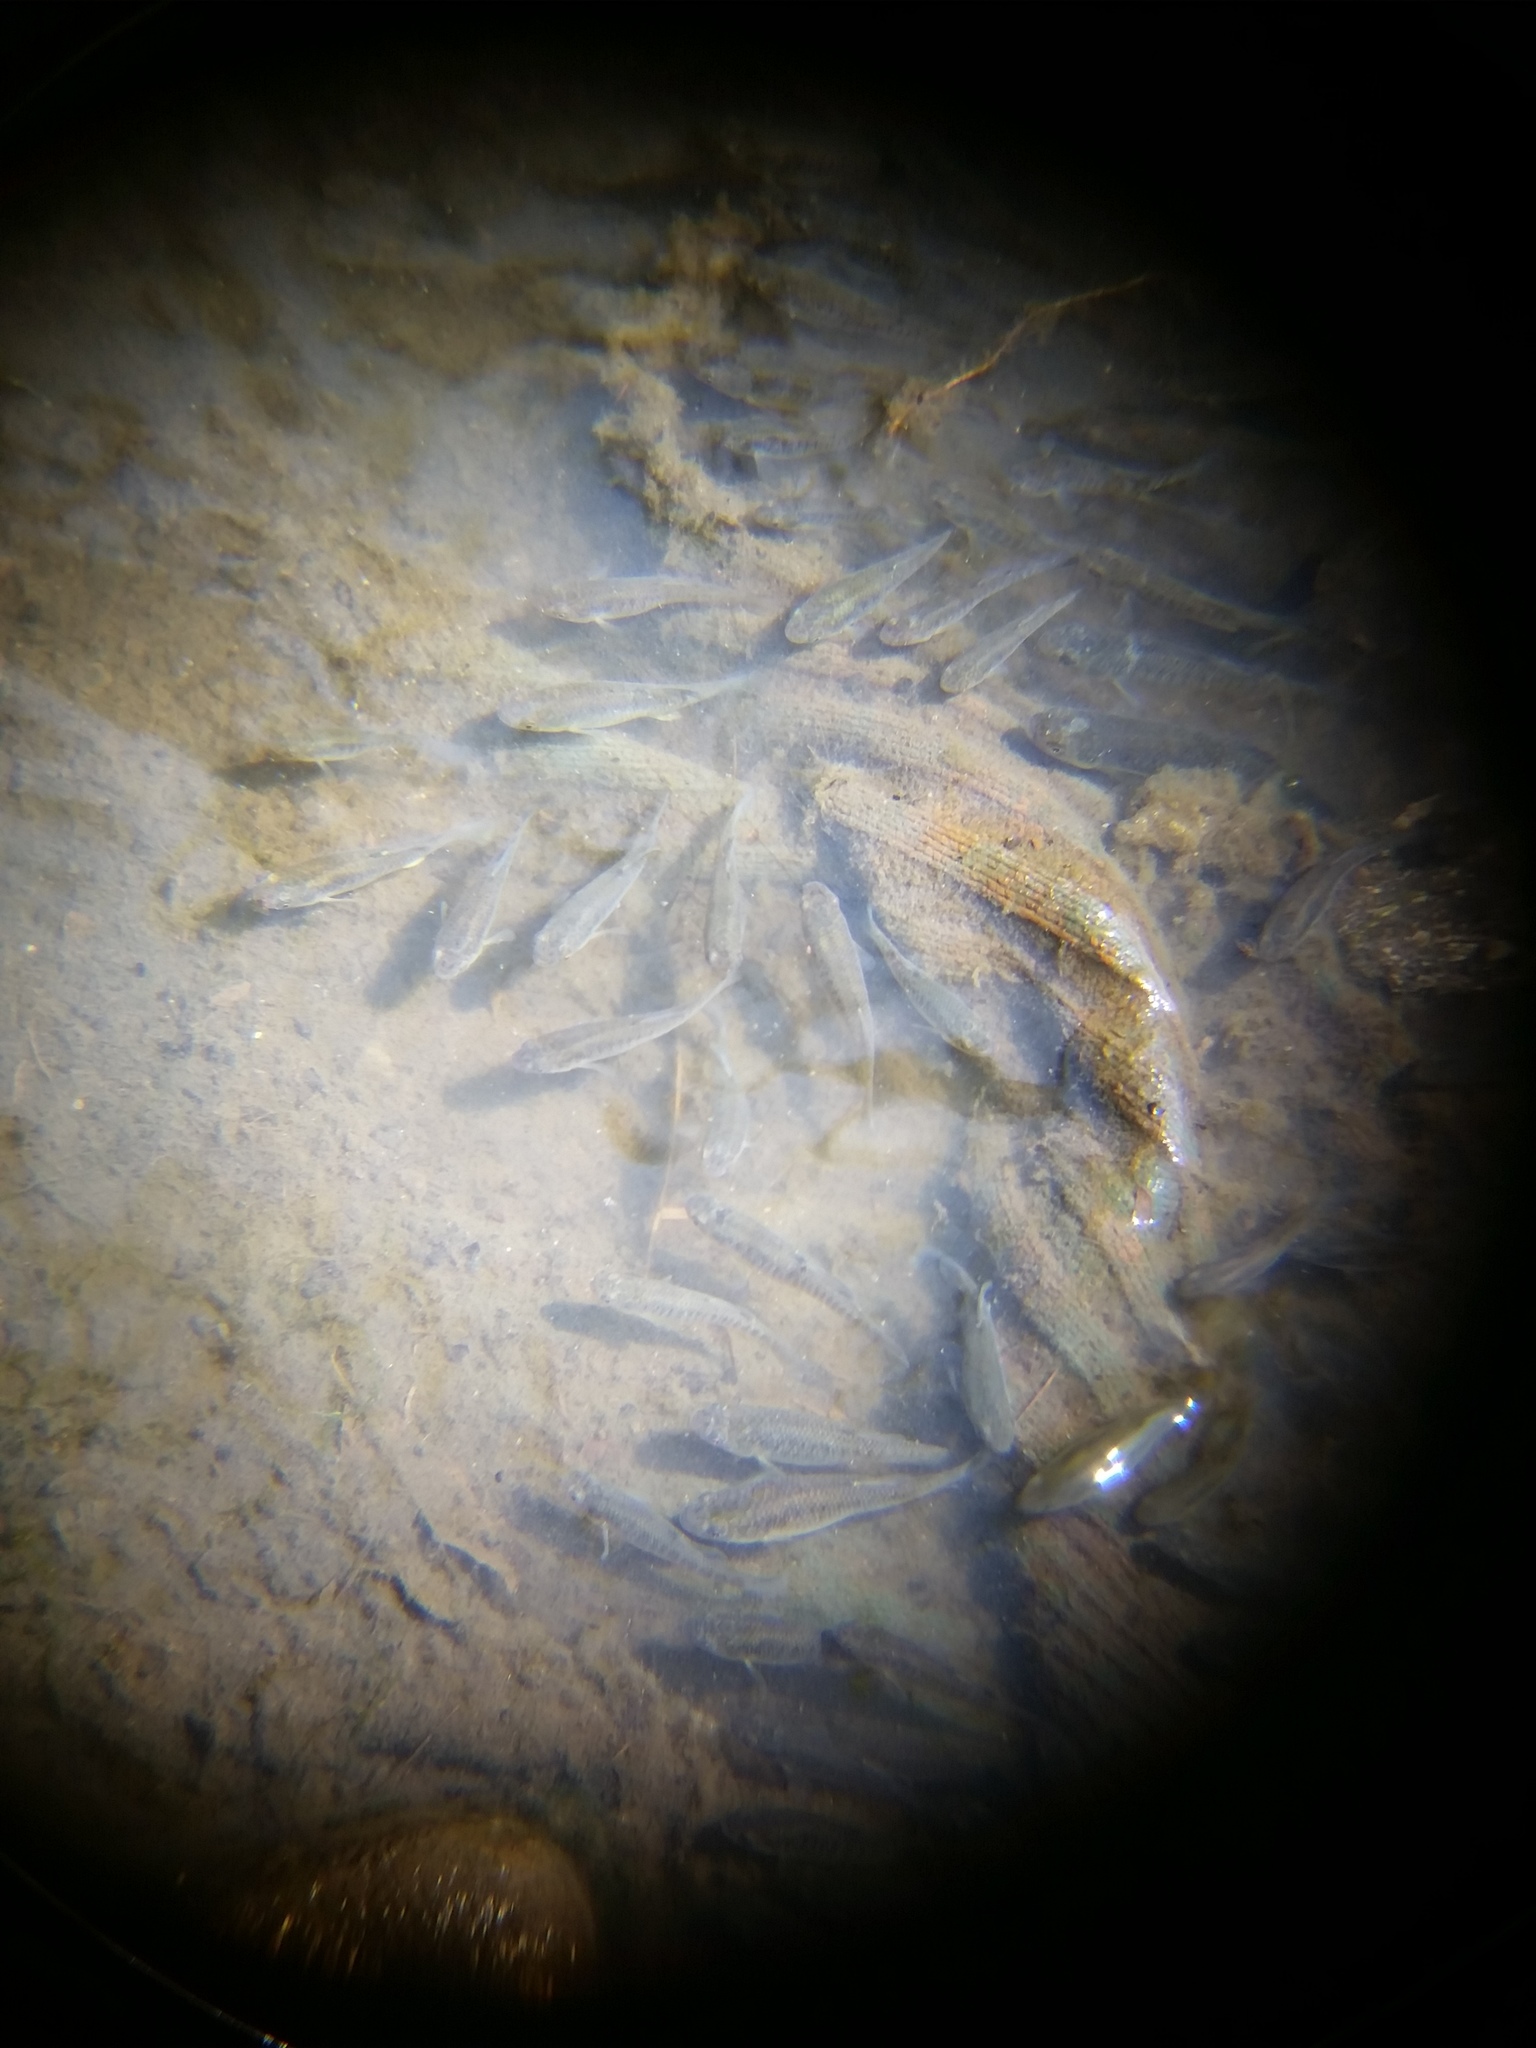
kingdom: Animalia
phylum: Chordata
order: Cyprinodontiformes
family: Fundulidae
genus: Fundulus
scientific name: Fundulus heteroclitus
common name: Mummichog
